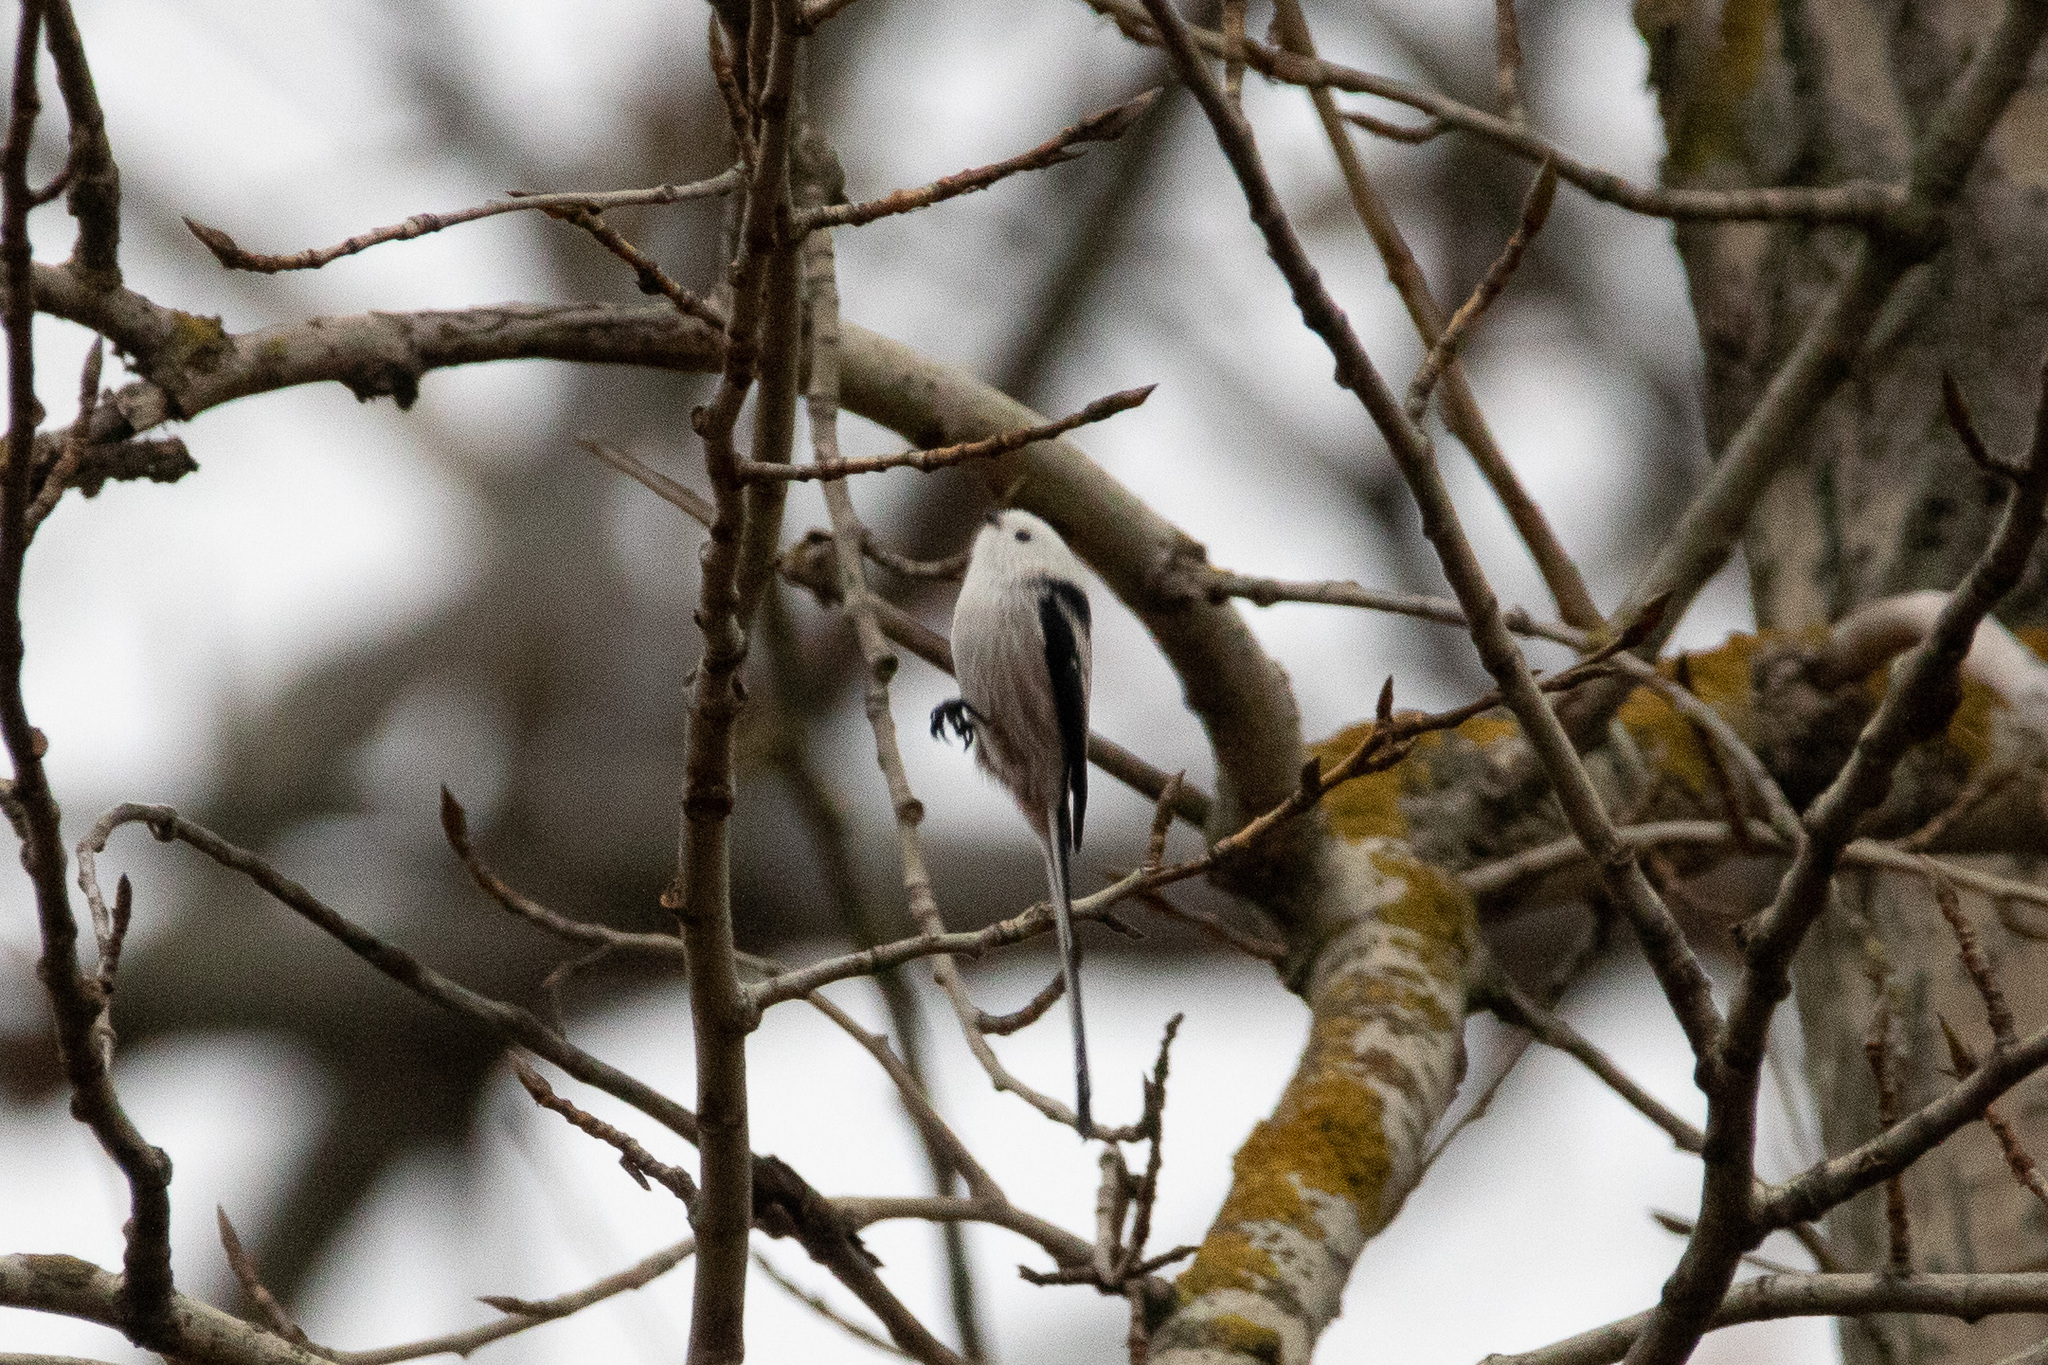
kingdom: Animalia
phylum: Chordata
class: Aves
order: Passeriformes
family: Aegithalidae
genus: Aegithalos
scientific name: Aegithalos caudatus
